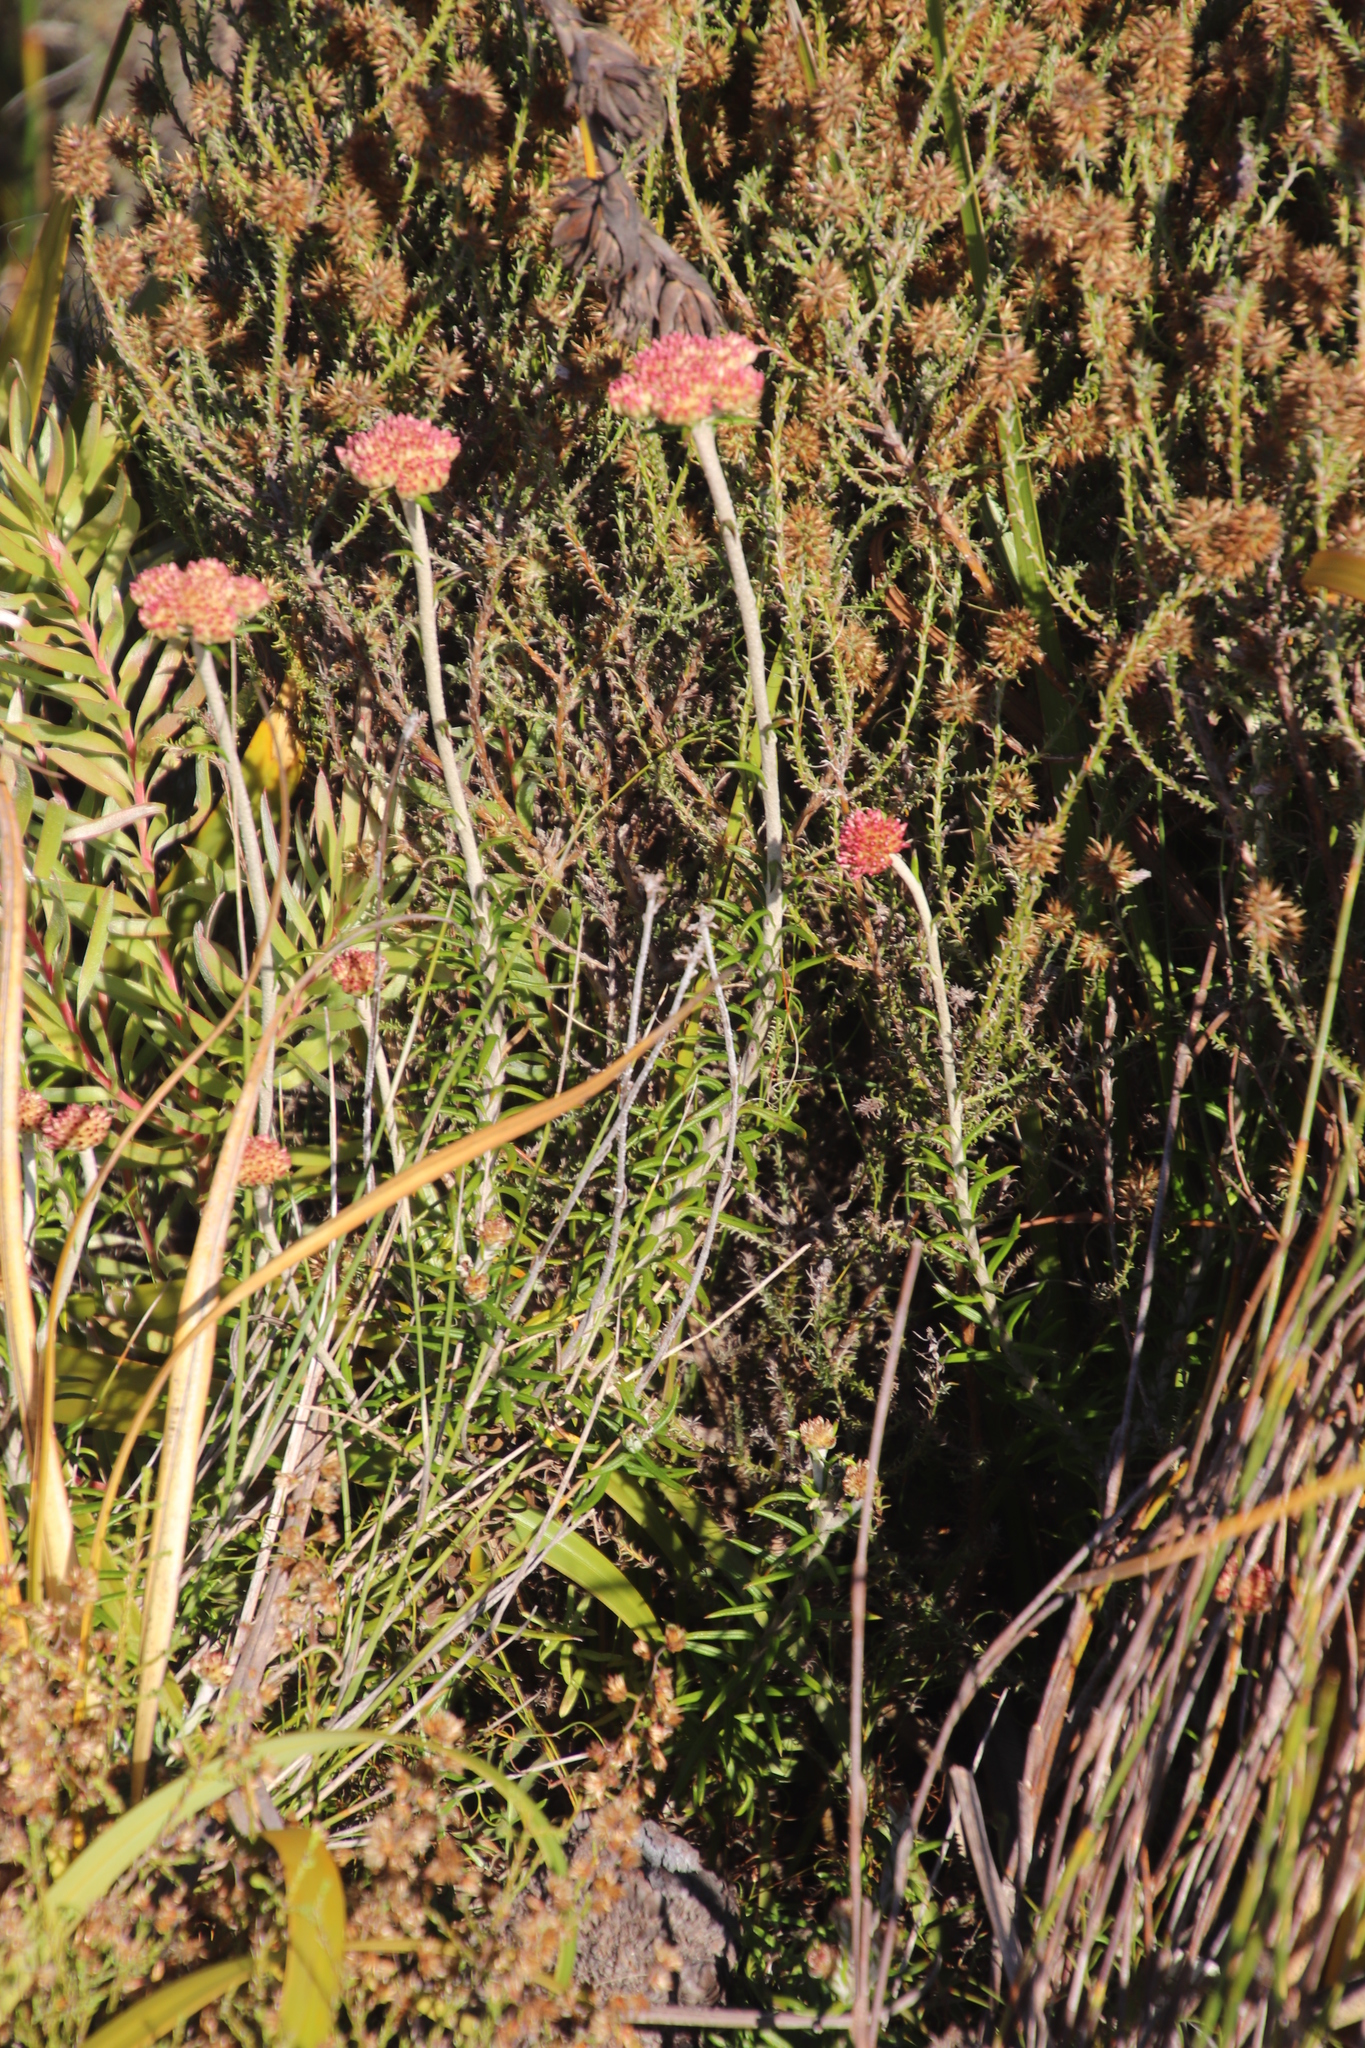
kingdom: Plantae
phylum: Tracheophyta
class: Magnoliopsida
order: Asterales
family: Asteraceae
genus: Anaxeton
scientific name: Anaxeton arborescens
